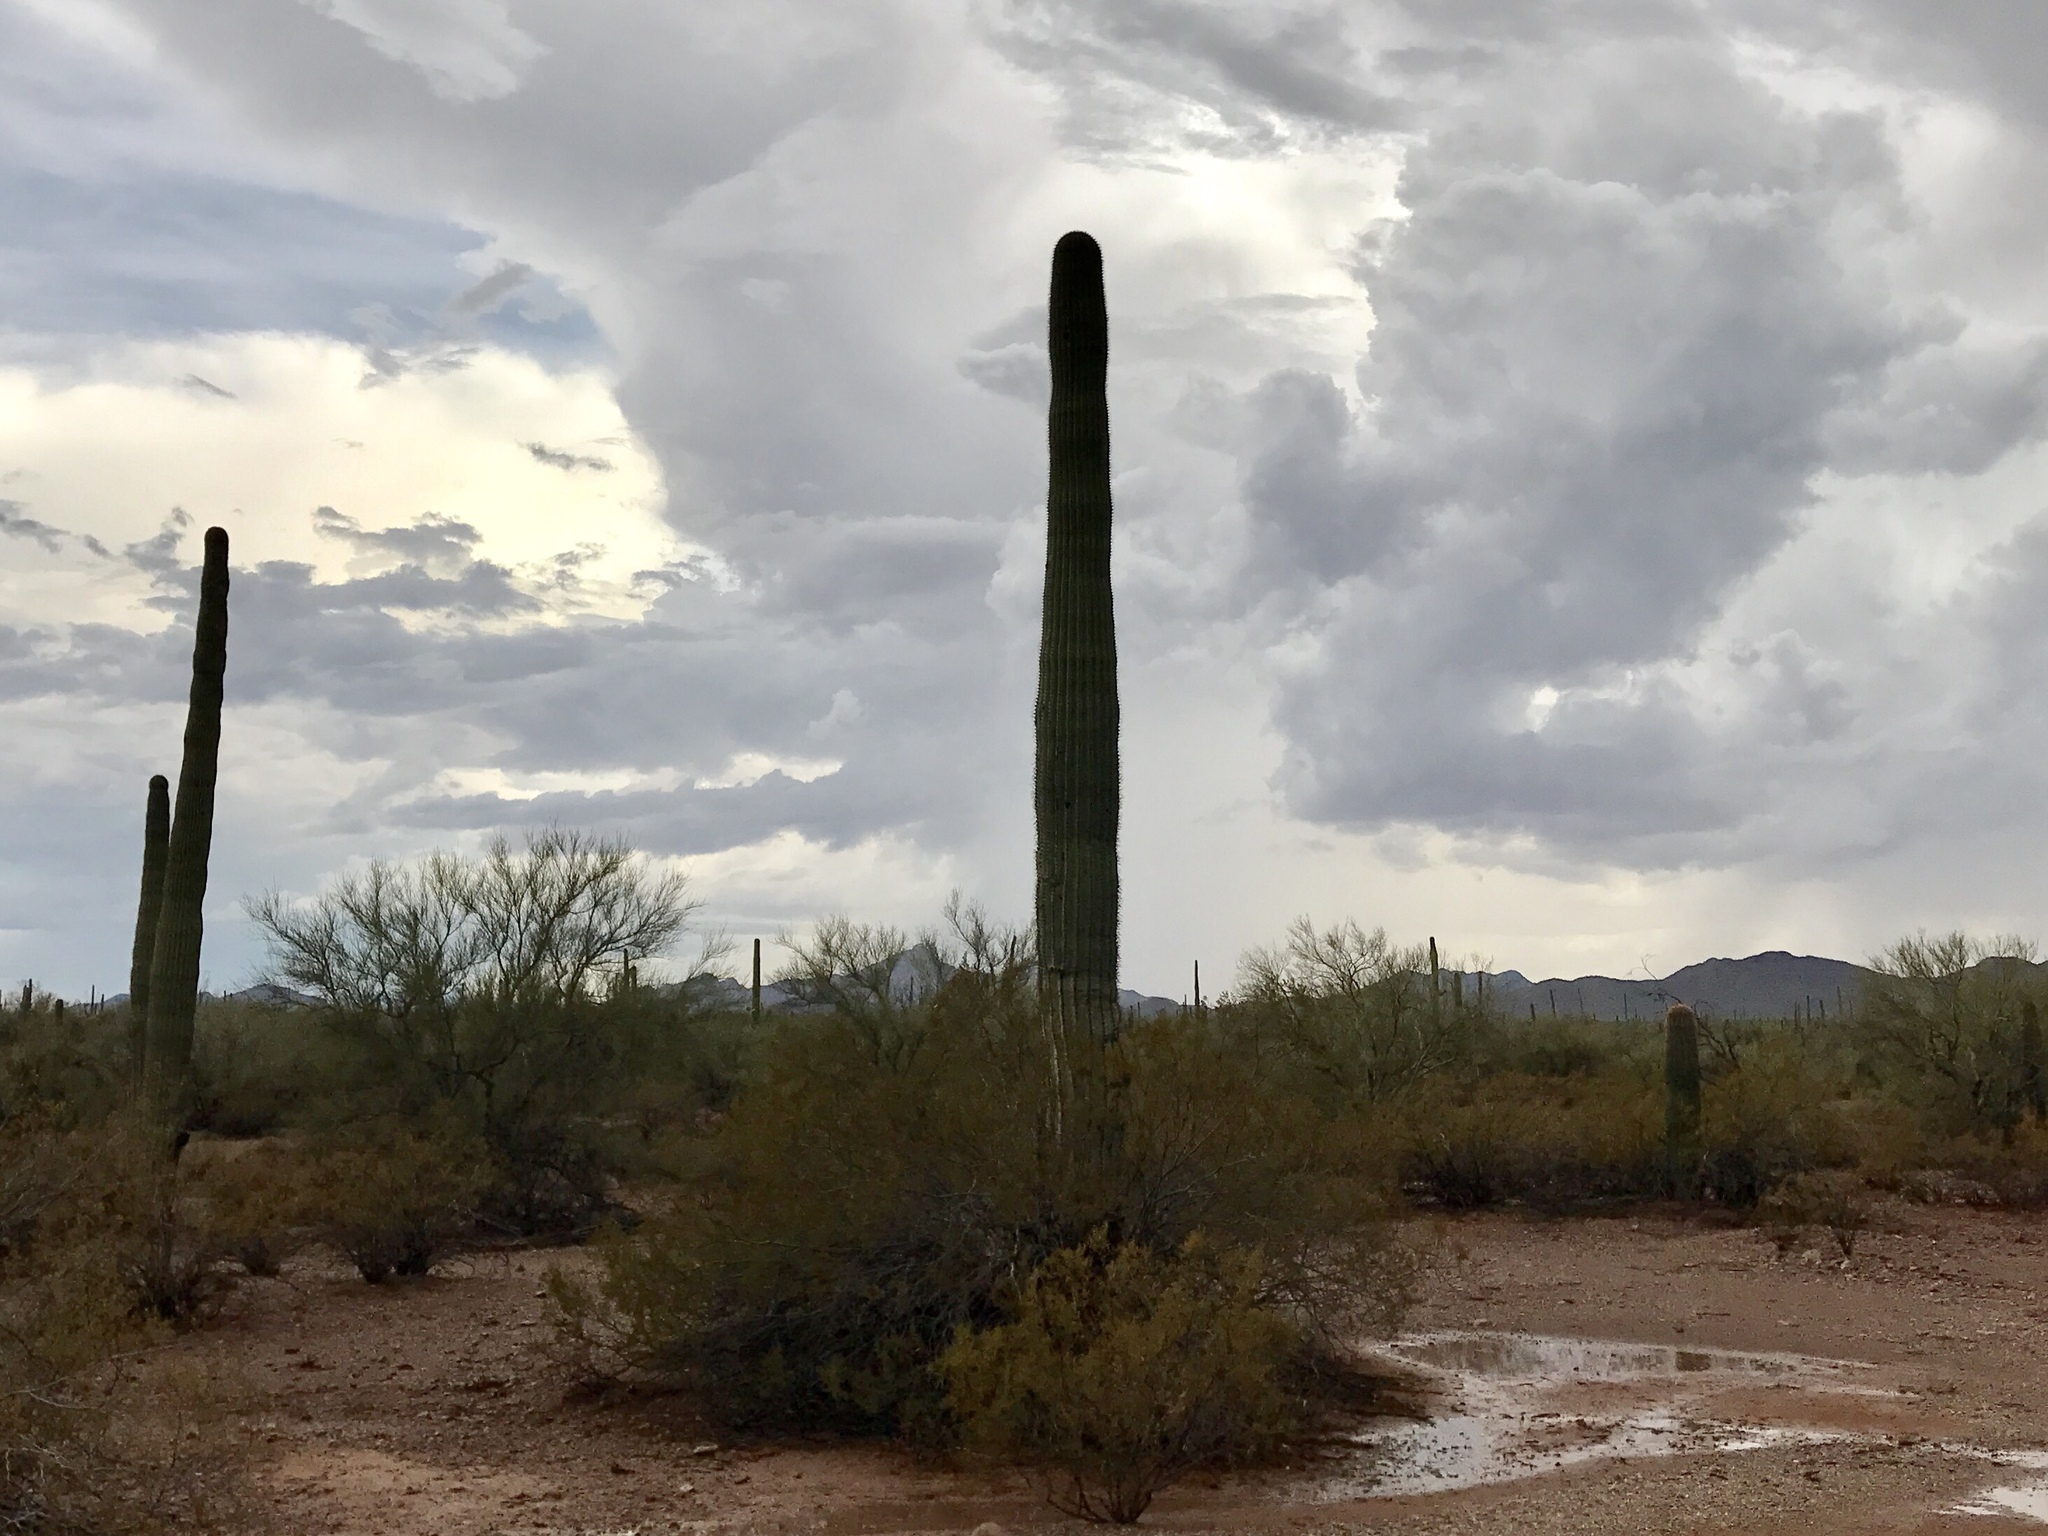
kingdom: Plantae
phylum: Tracheophyta
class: Magnoliopsida
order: Caryophyllales
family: Cactaceae
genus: Carnegiea
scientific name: Carnegiea gigantea
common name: Saguaro
